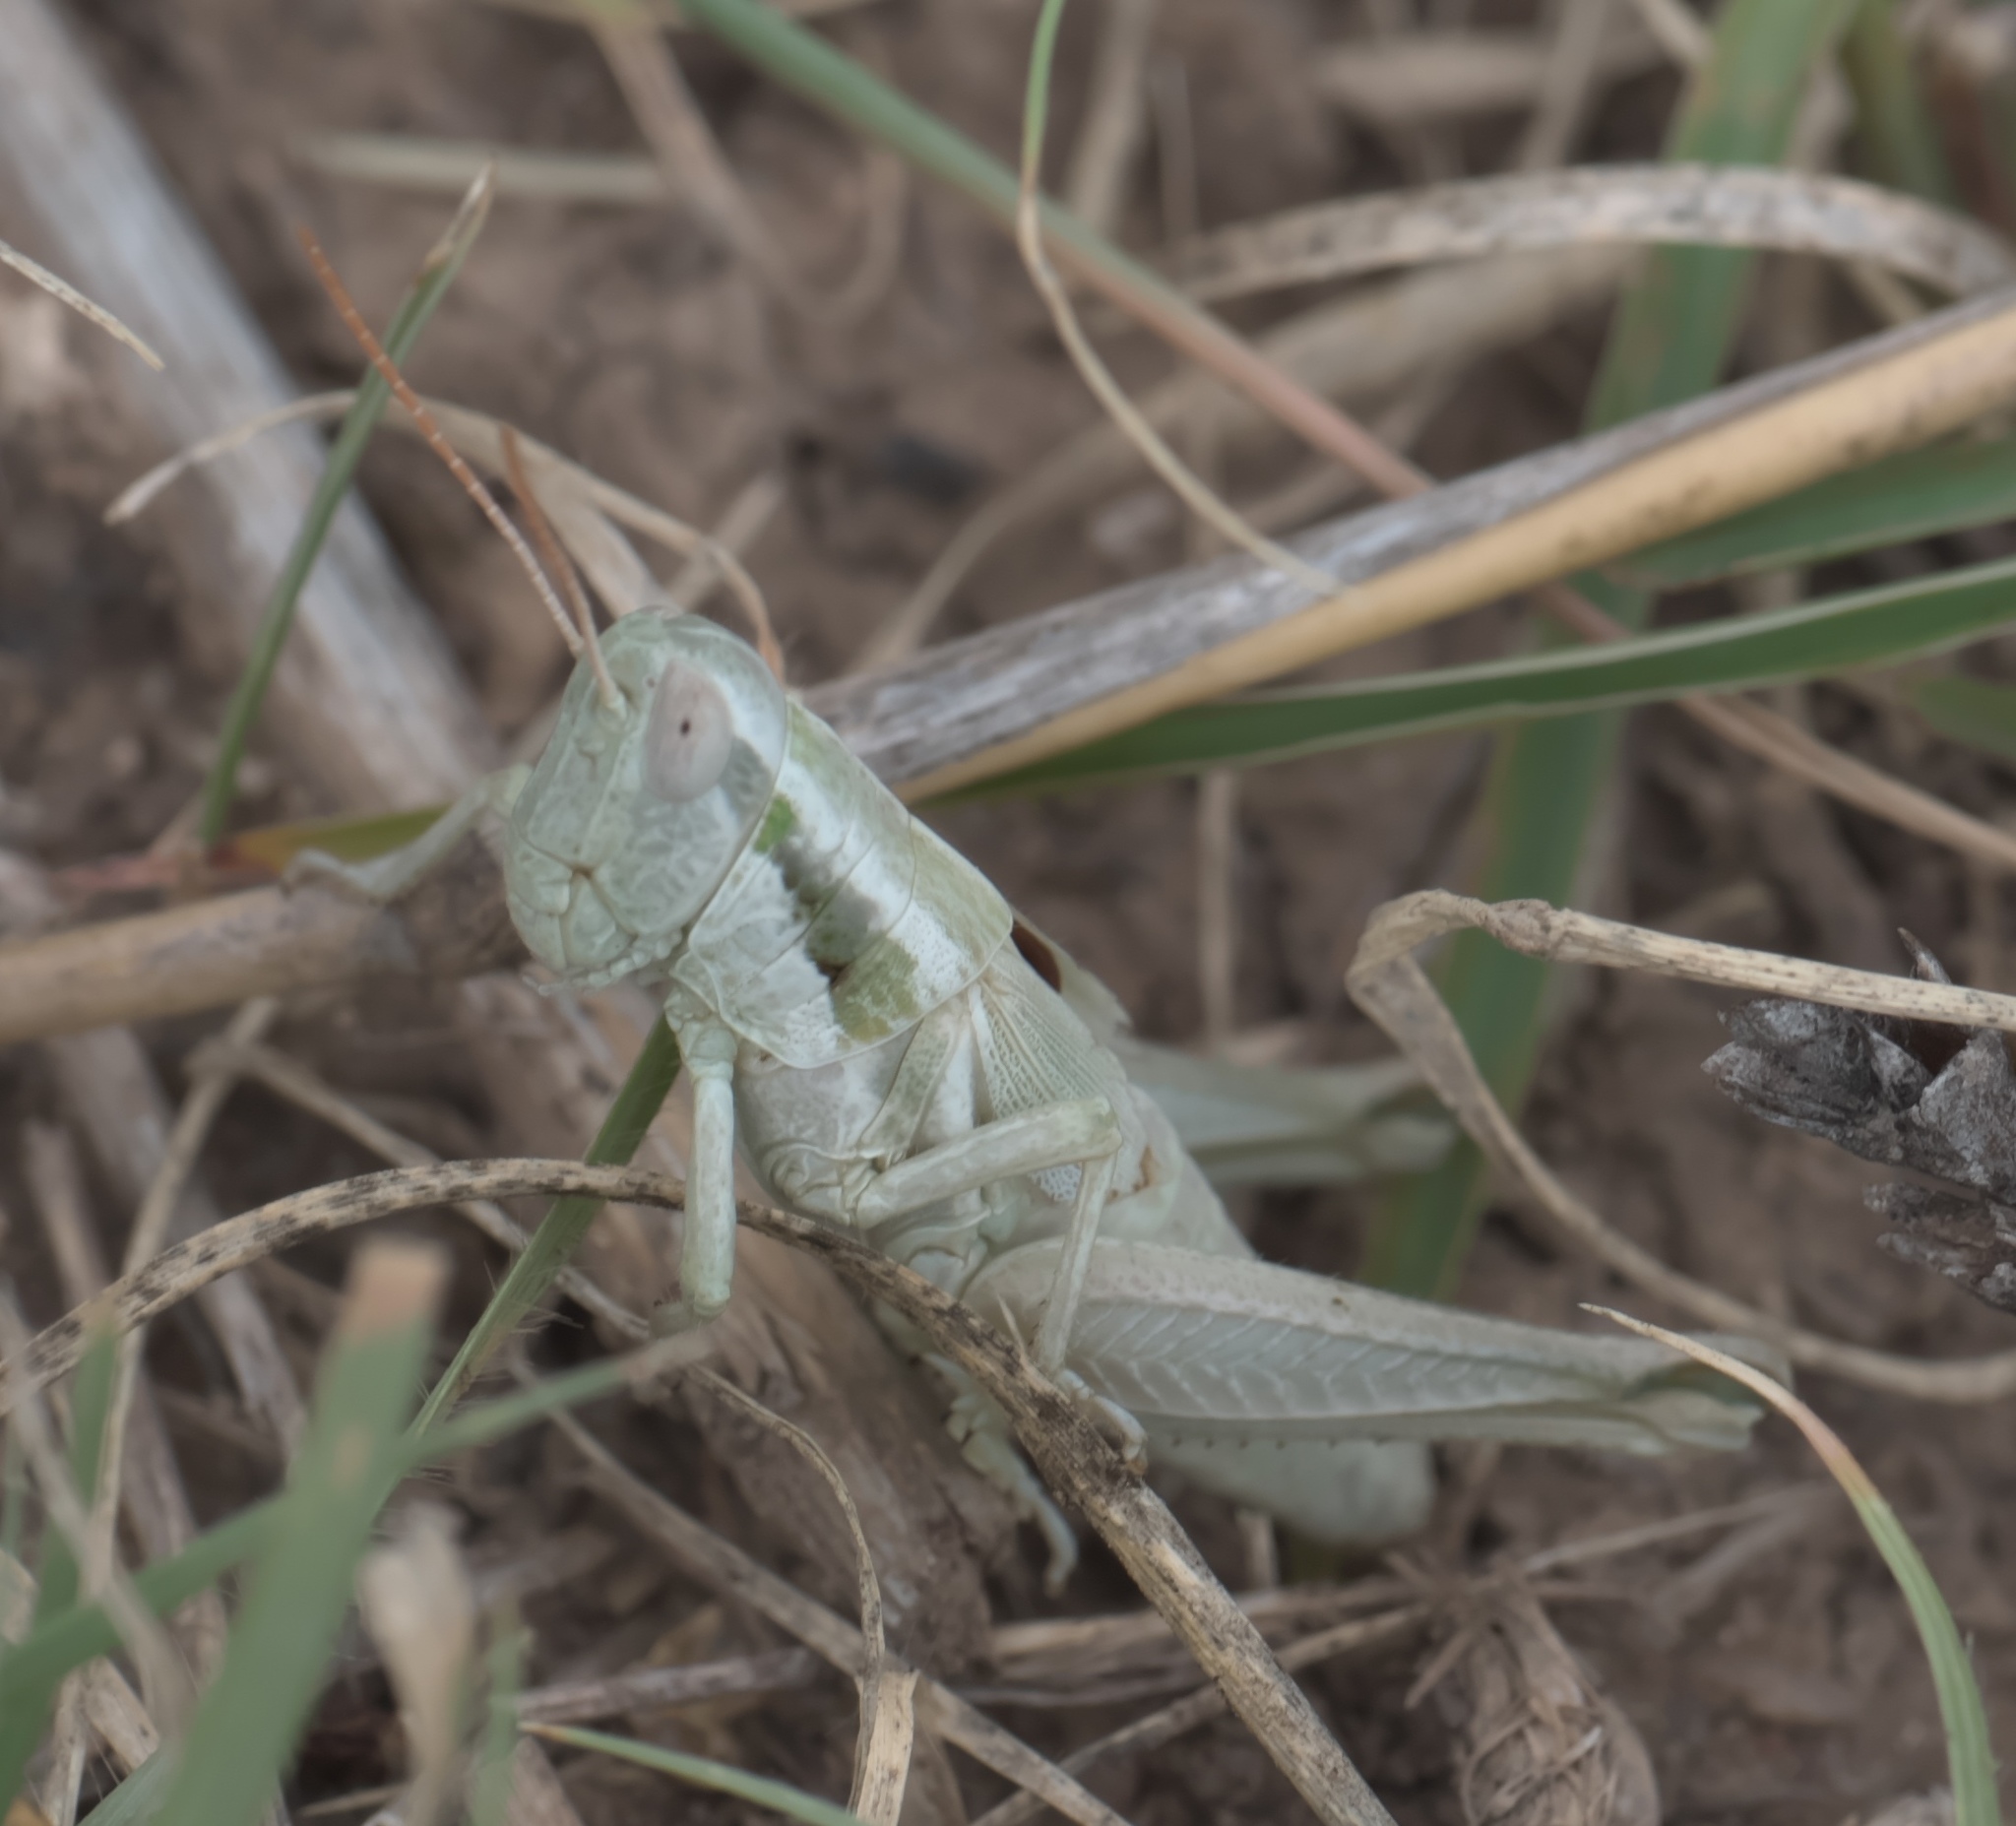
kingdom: Animalia
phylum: Arthropoda
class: Insecta
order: Orthoptera
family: Acrididae
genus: Hypochlora
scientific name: Hypochlora alba
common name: Cudweed grasshopper
